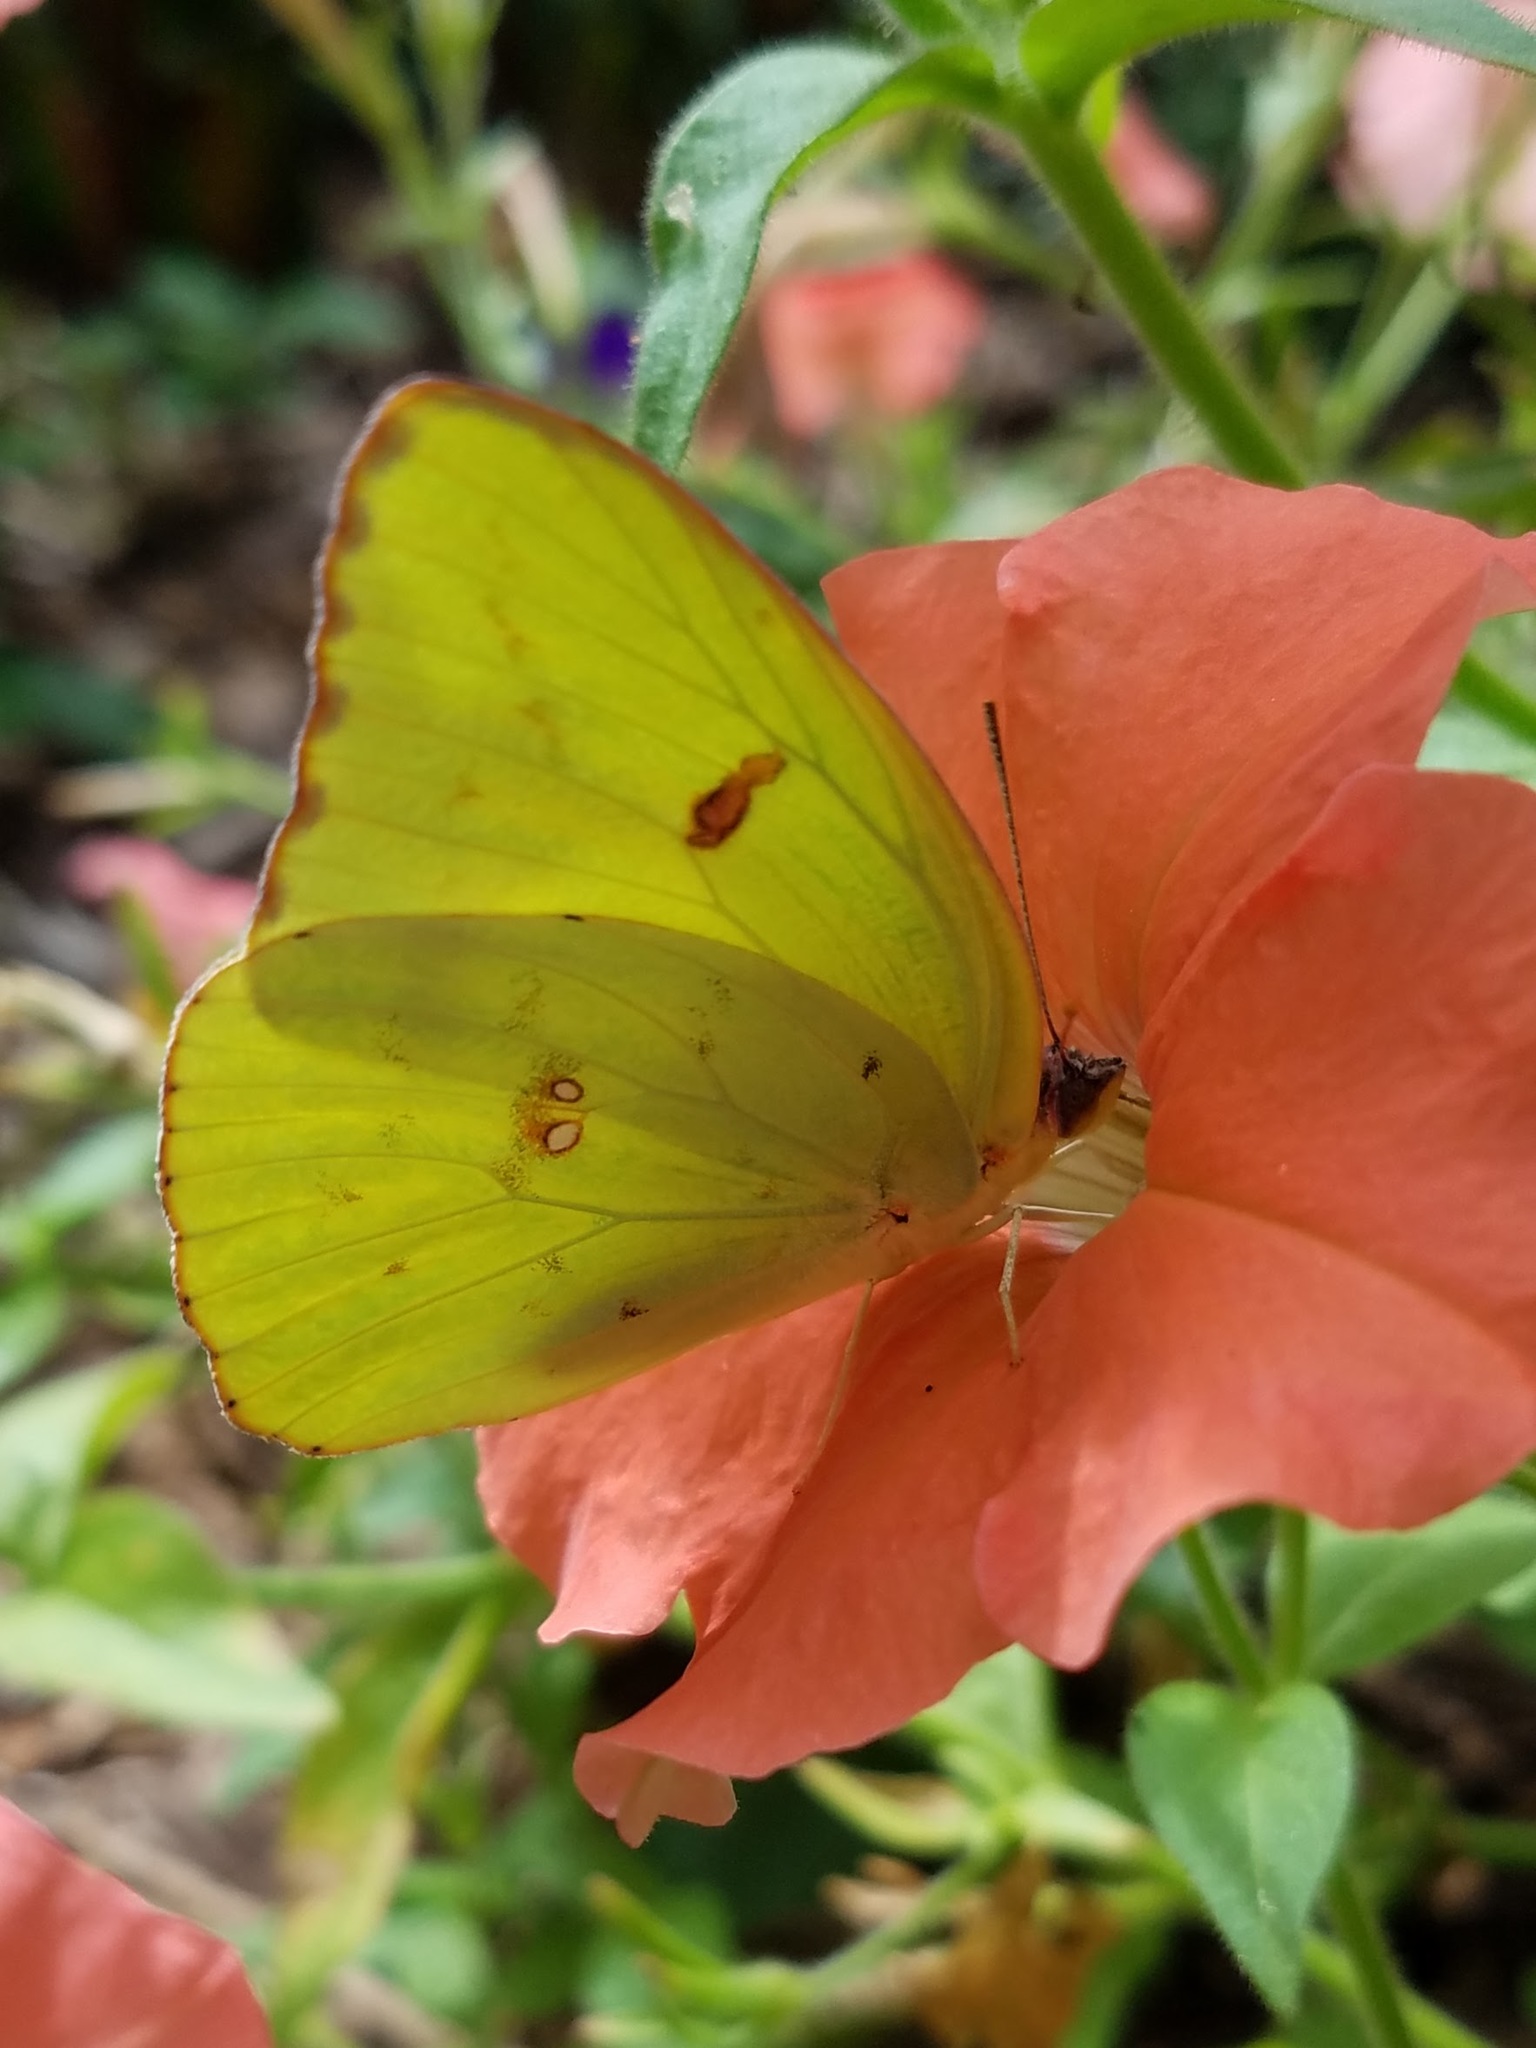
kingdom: Animalia
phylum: Arthropoda
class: Insecta
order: Lepidoptera
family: Pieridae
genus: Phoebis
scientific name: Phoebis sennae
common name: Cloudless sulphur
